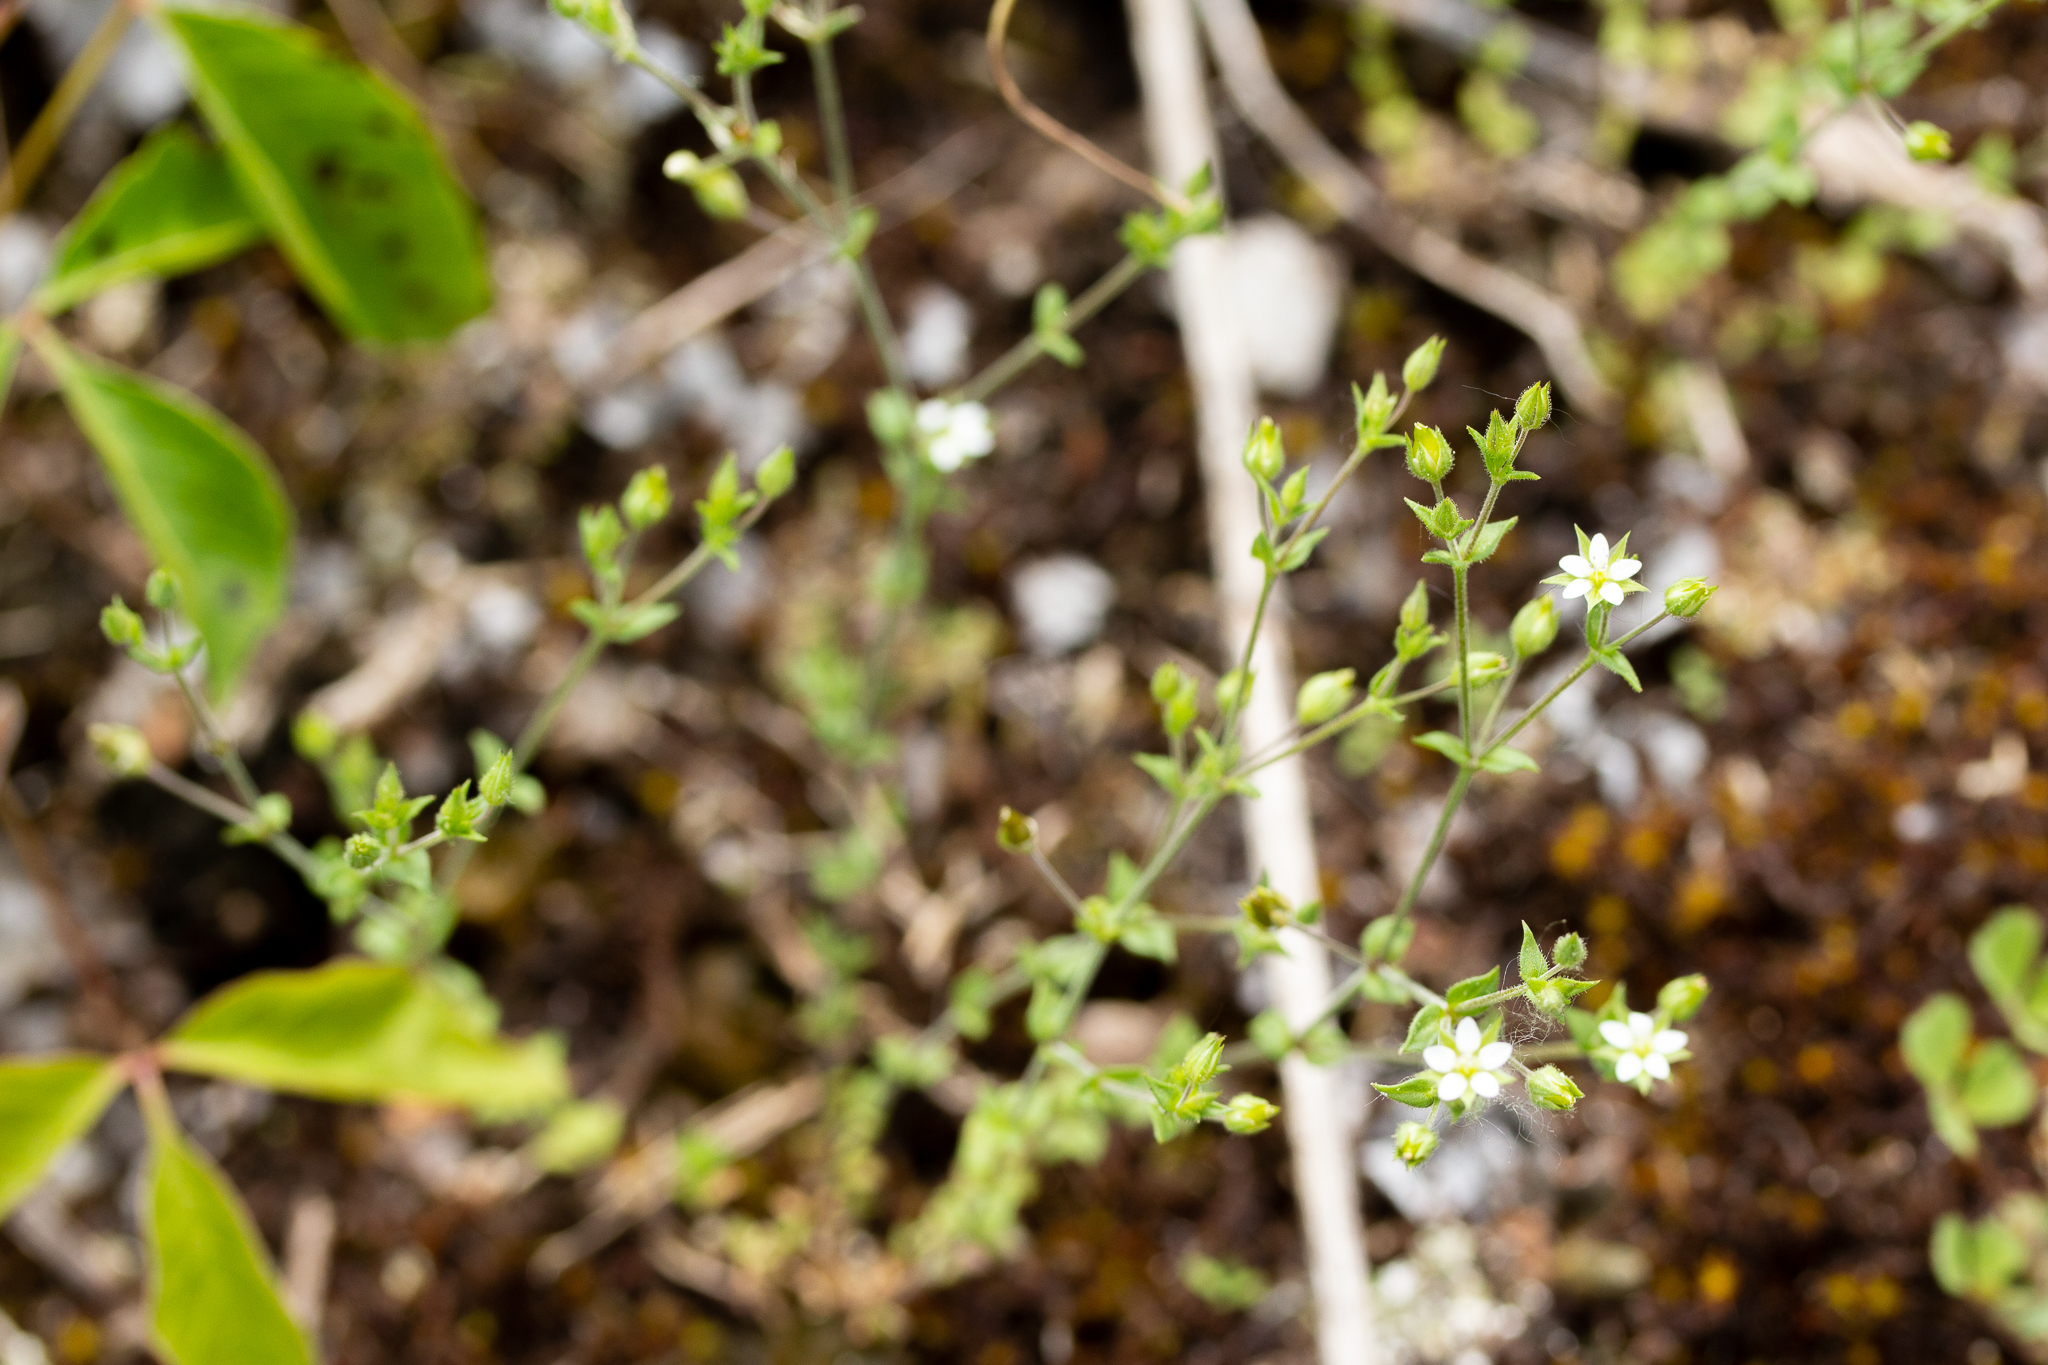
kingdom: Plantae
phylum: Tracheophyta
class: Magnoliopsida
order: Caryophyllales
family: Caryophyllaceae
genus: Arenaria
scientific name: Arenaria serpyllifolia
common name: Thyme-leaved sandwort
